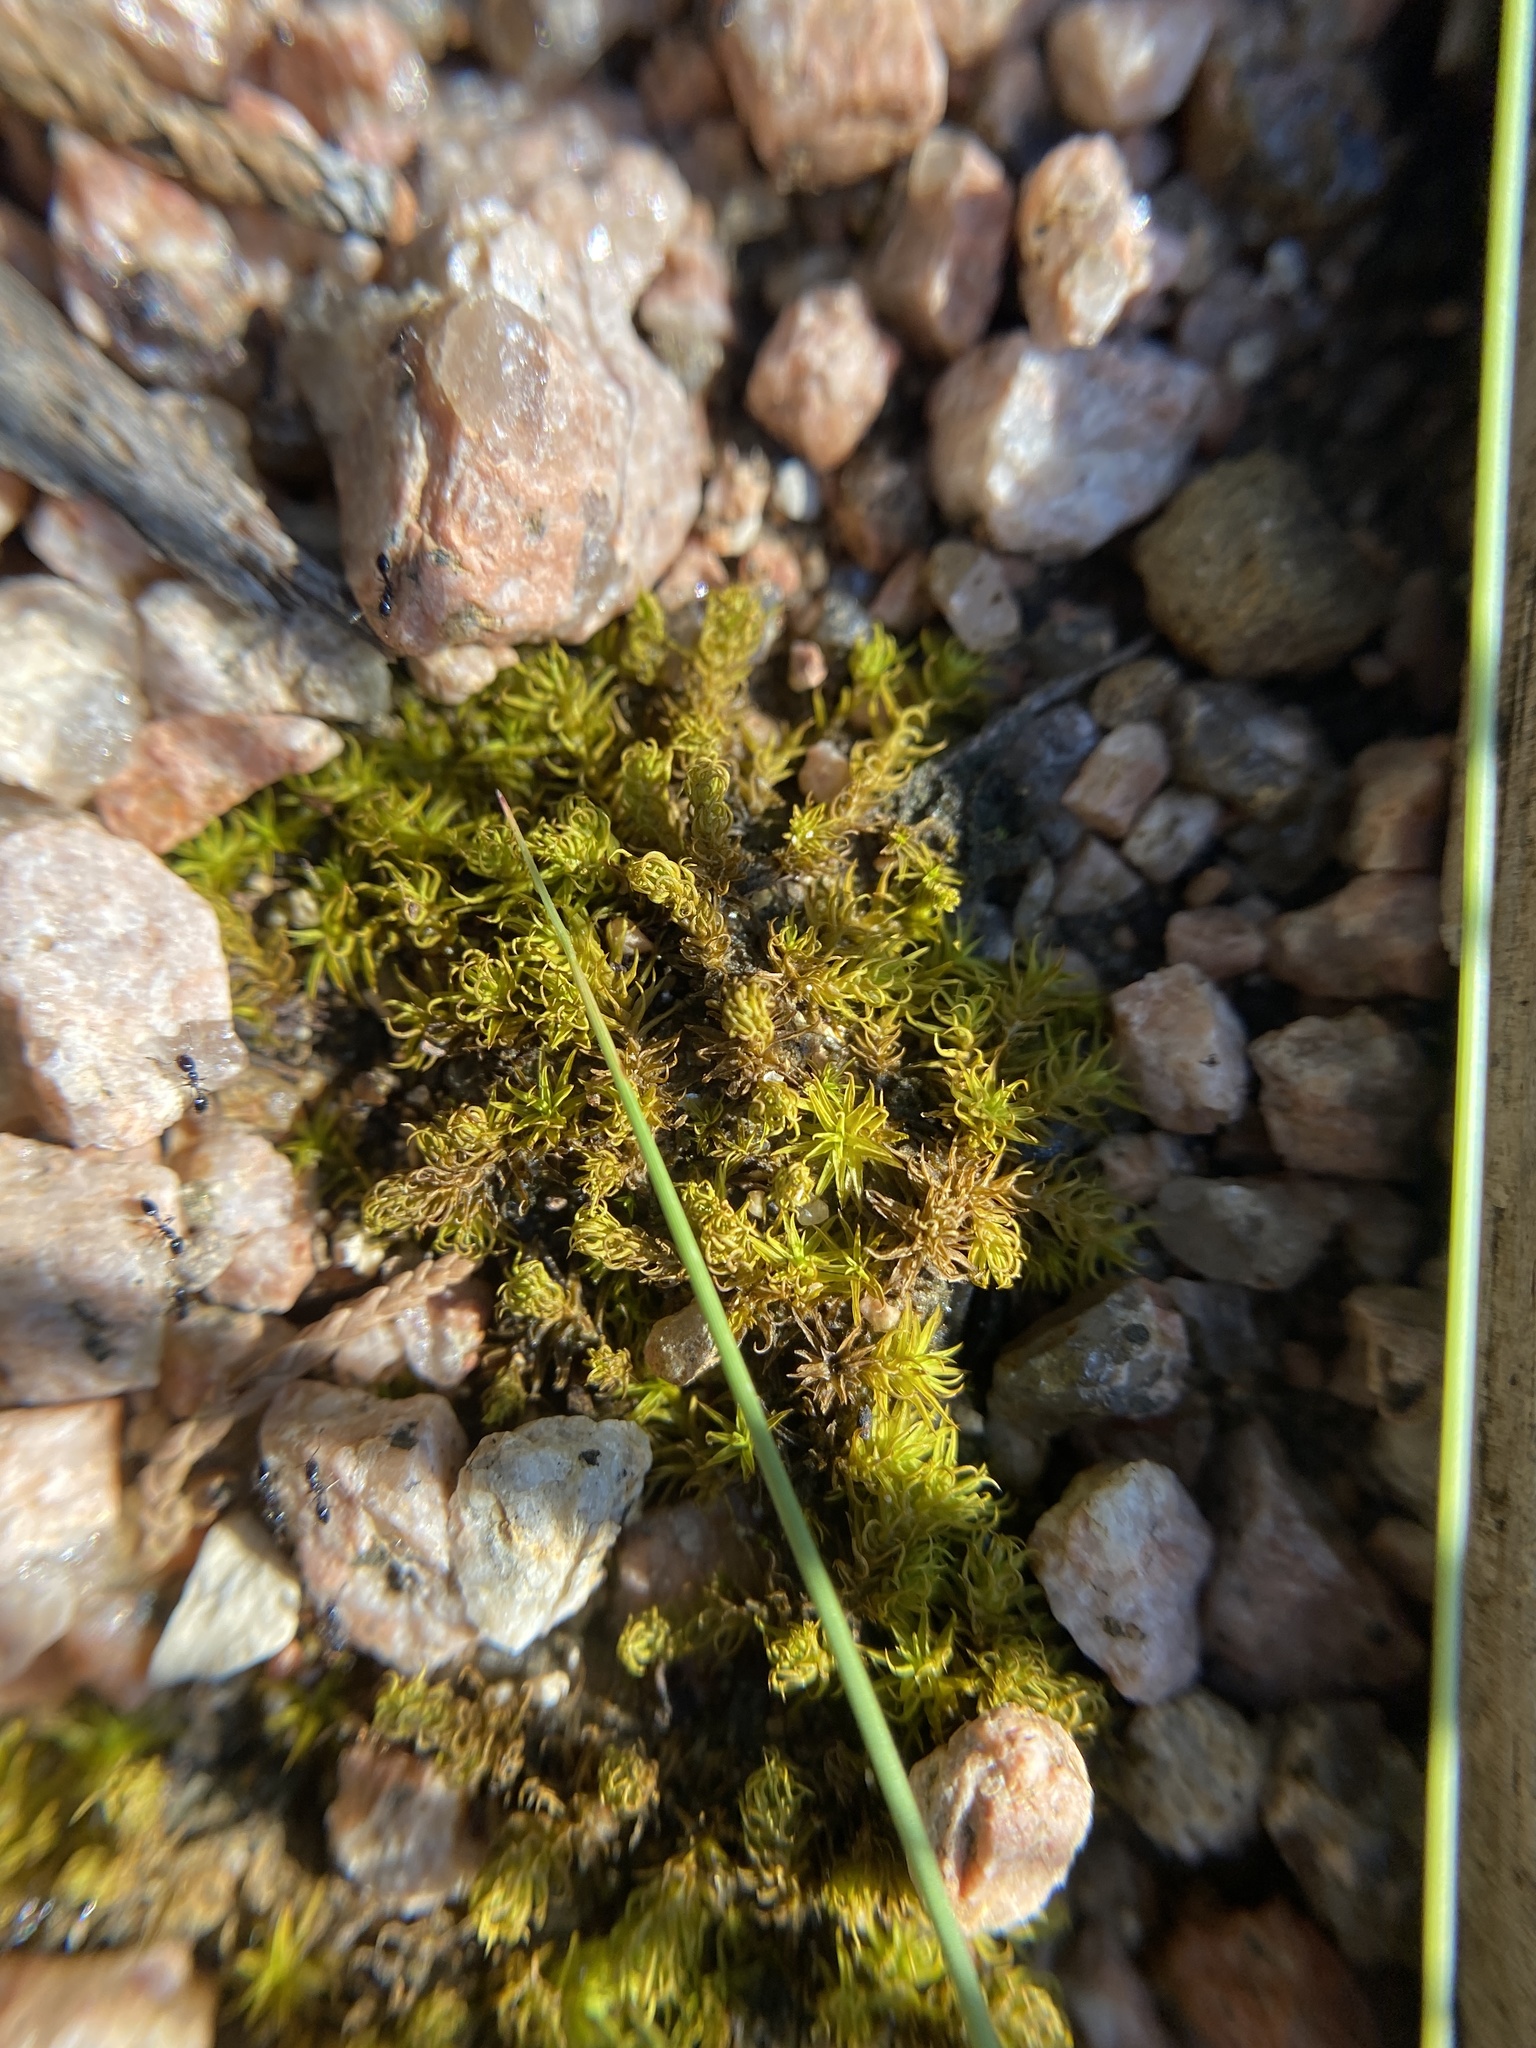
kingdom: Plantae
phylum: Bryophyta
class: Bryopsida
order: Pottiales
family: Pottiaceae
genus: Pleurochaete
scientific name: Pleurochaete luteola
